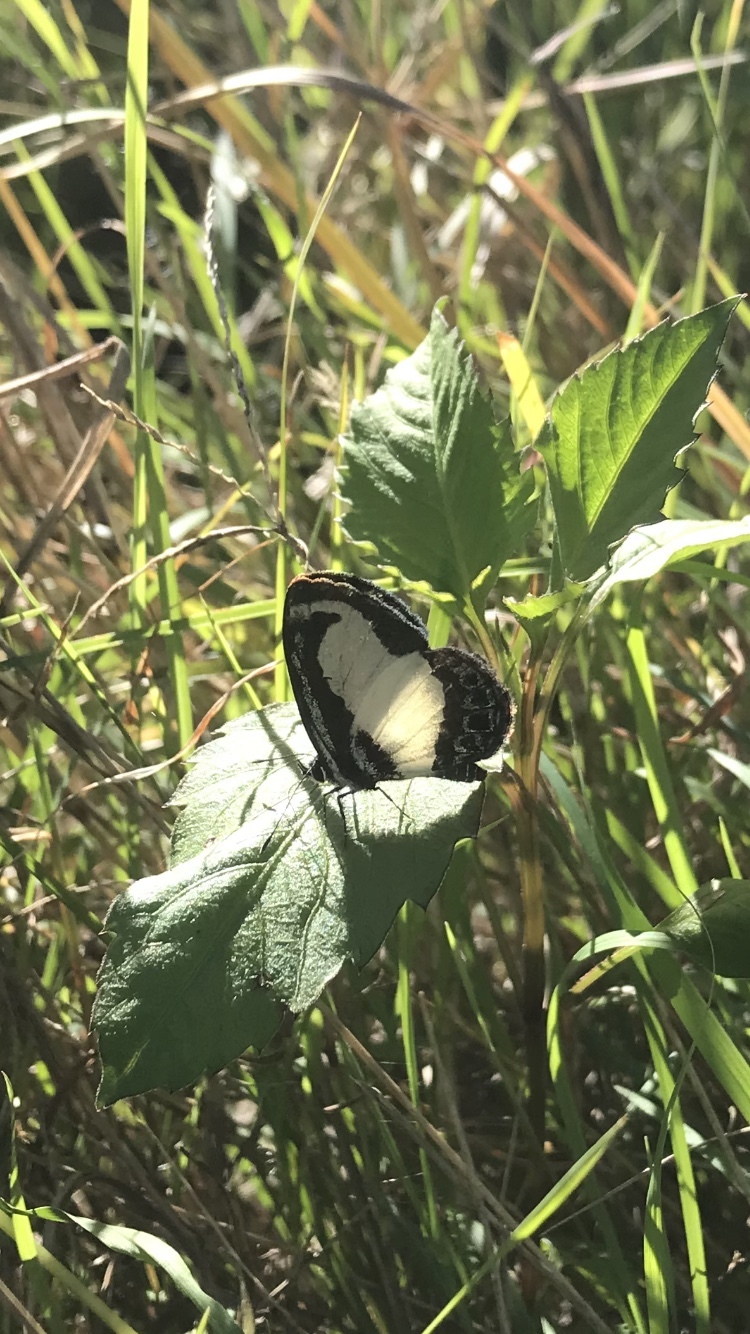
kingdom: Animalia
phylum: Arthropoda
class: Insecta
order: Lepidoptera
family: Lycaenidae
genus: Psychonotis
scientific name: Psychonotis caelius
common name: Small green banded blue
